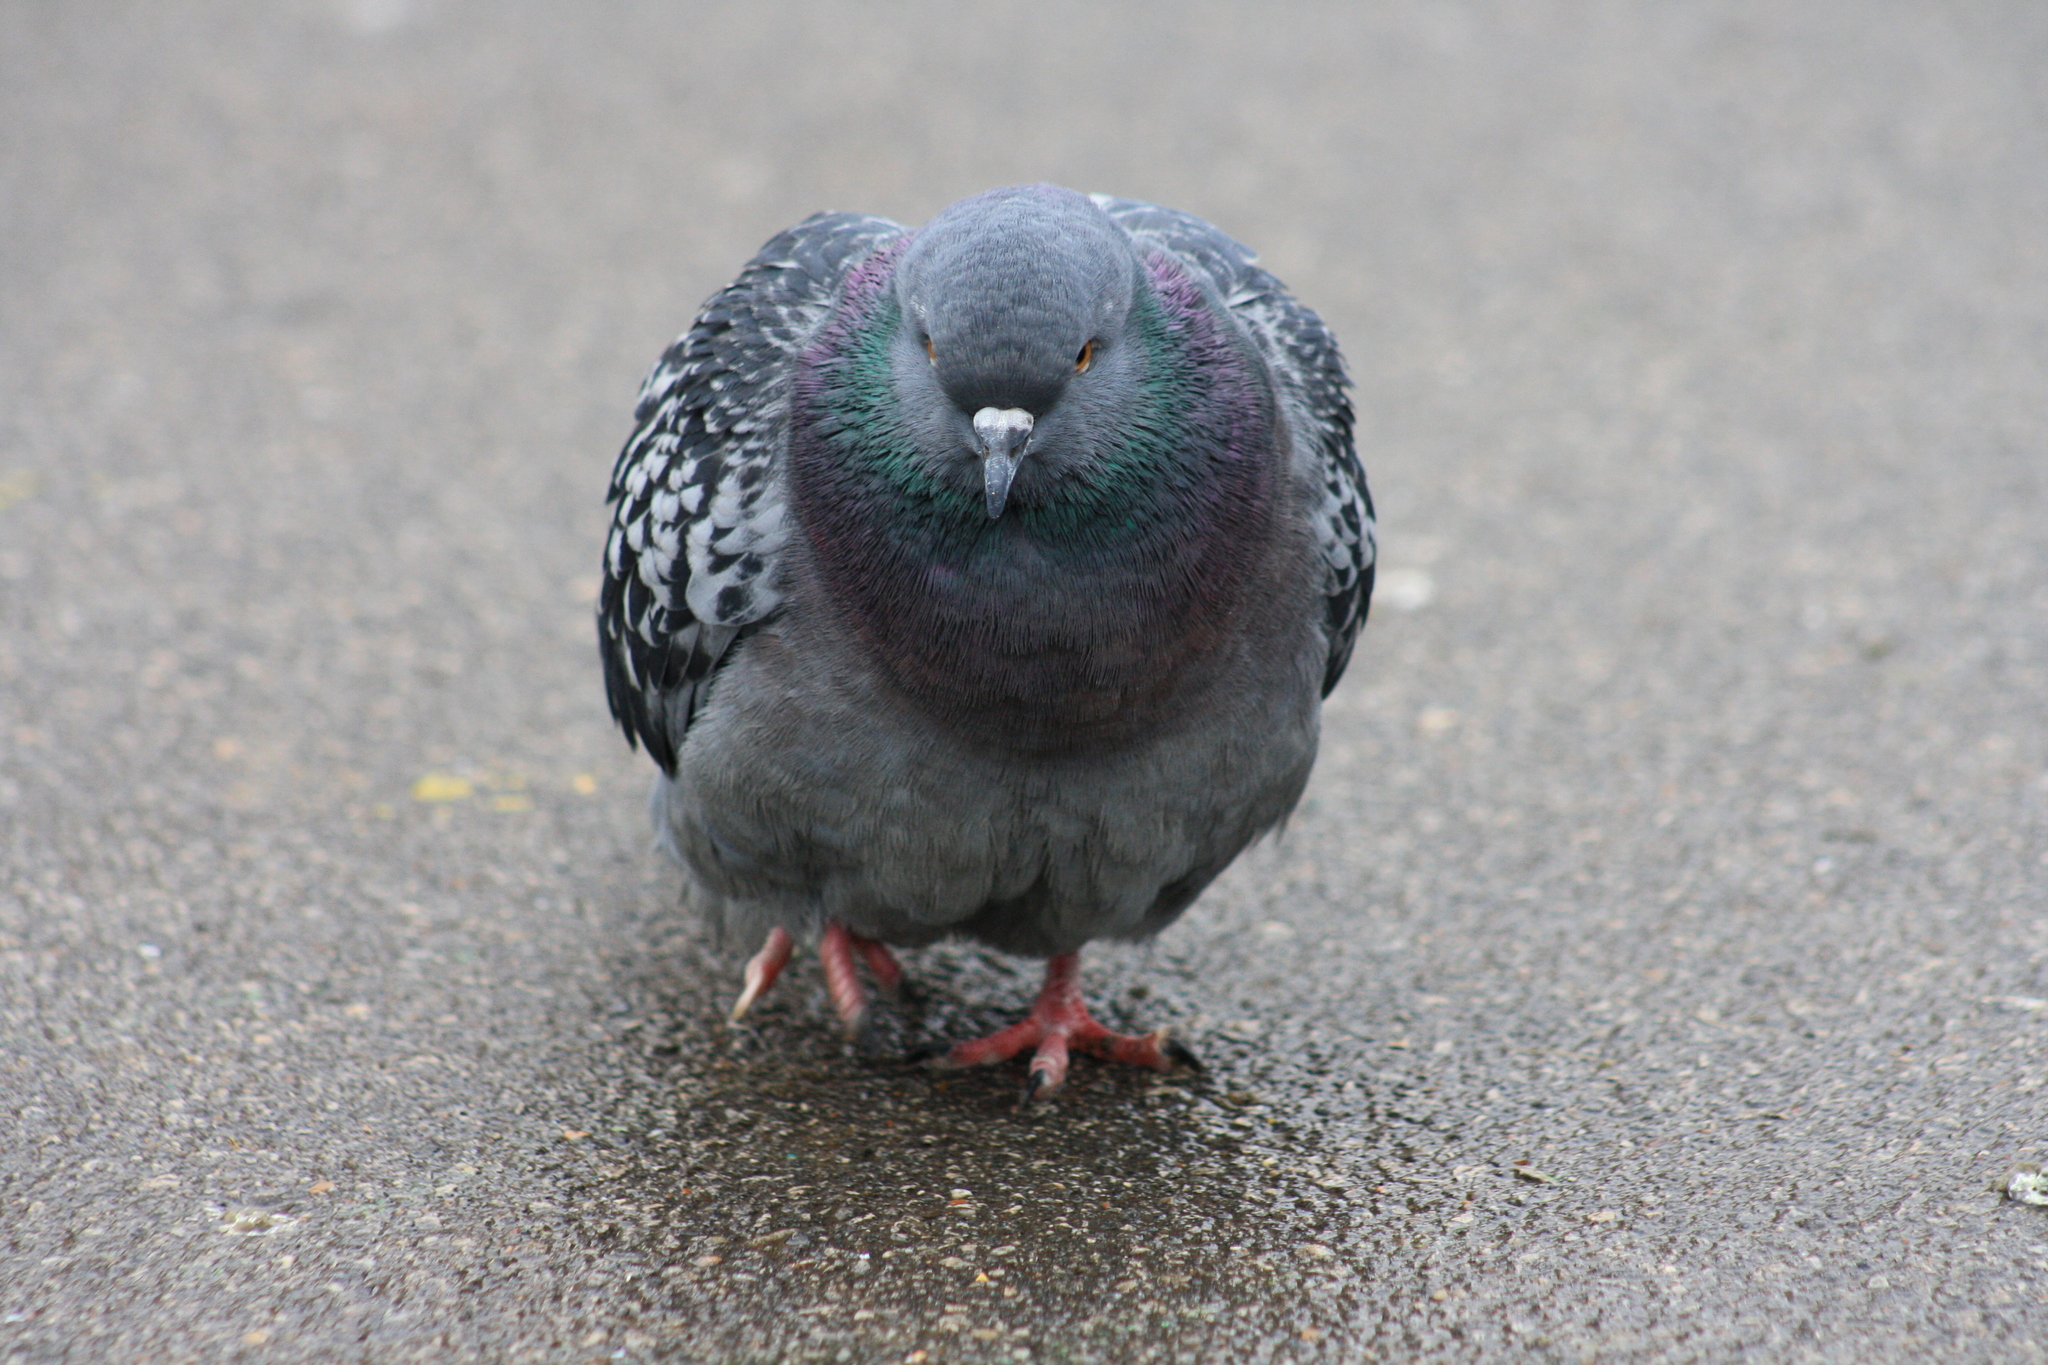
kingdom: Animalia
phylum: Chordata
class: Aves
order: Columbiformes
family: Columbidae
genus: Columba
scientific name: Columba livia
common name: Rock pigeon
